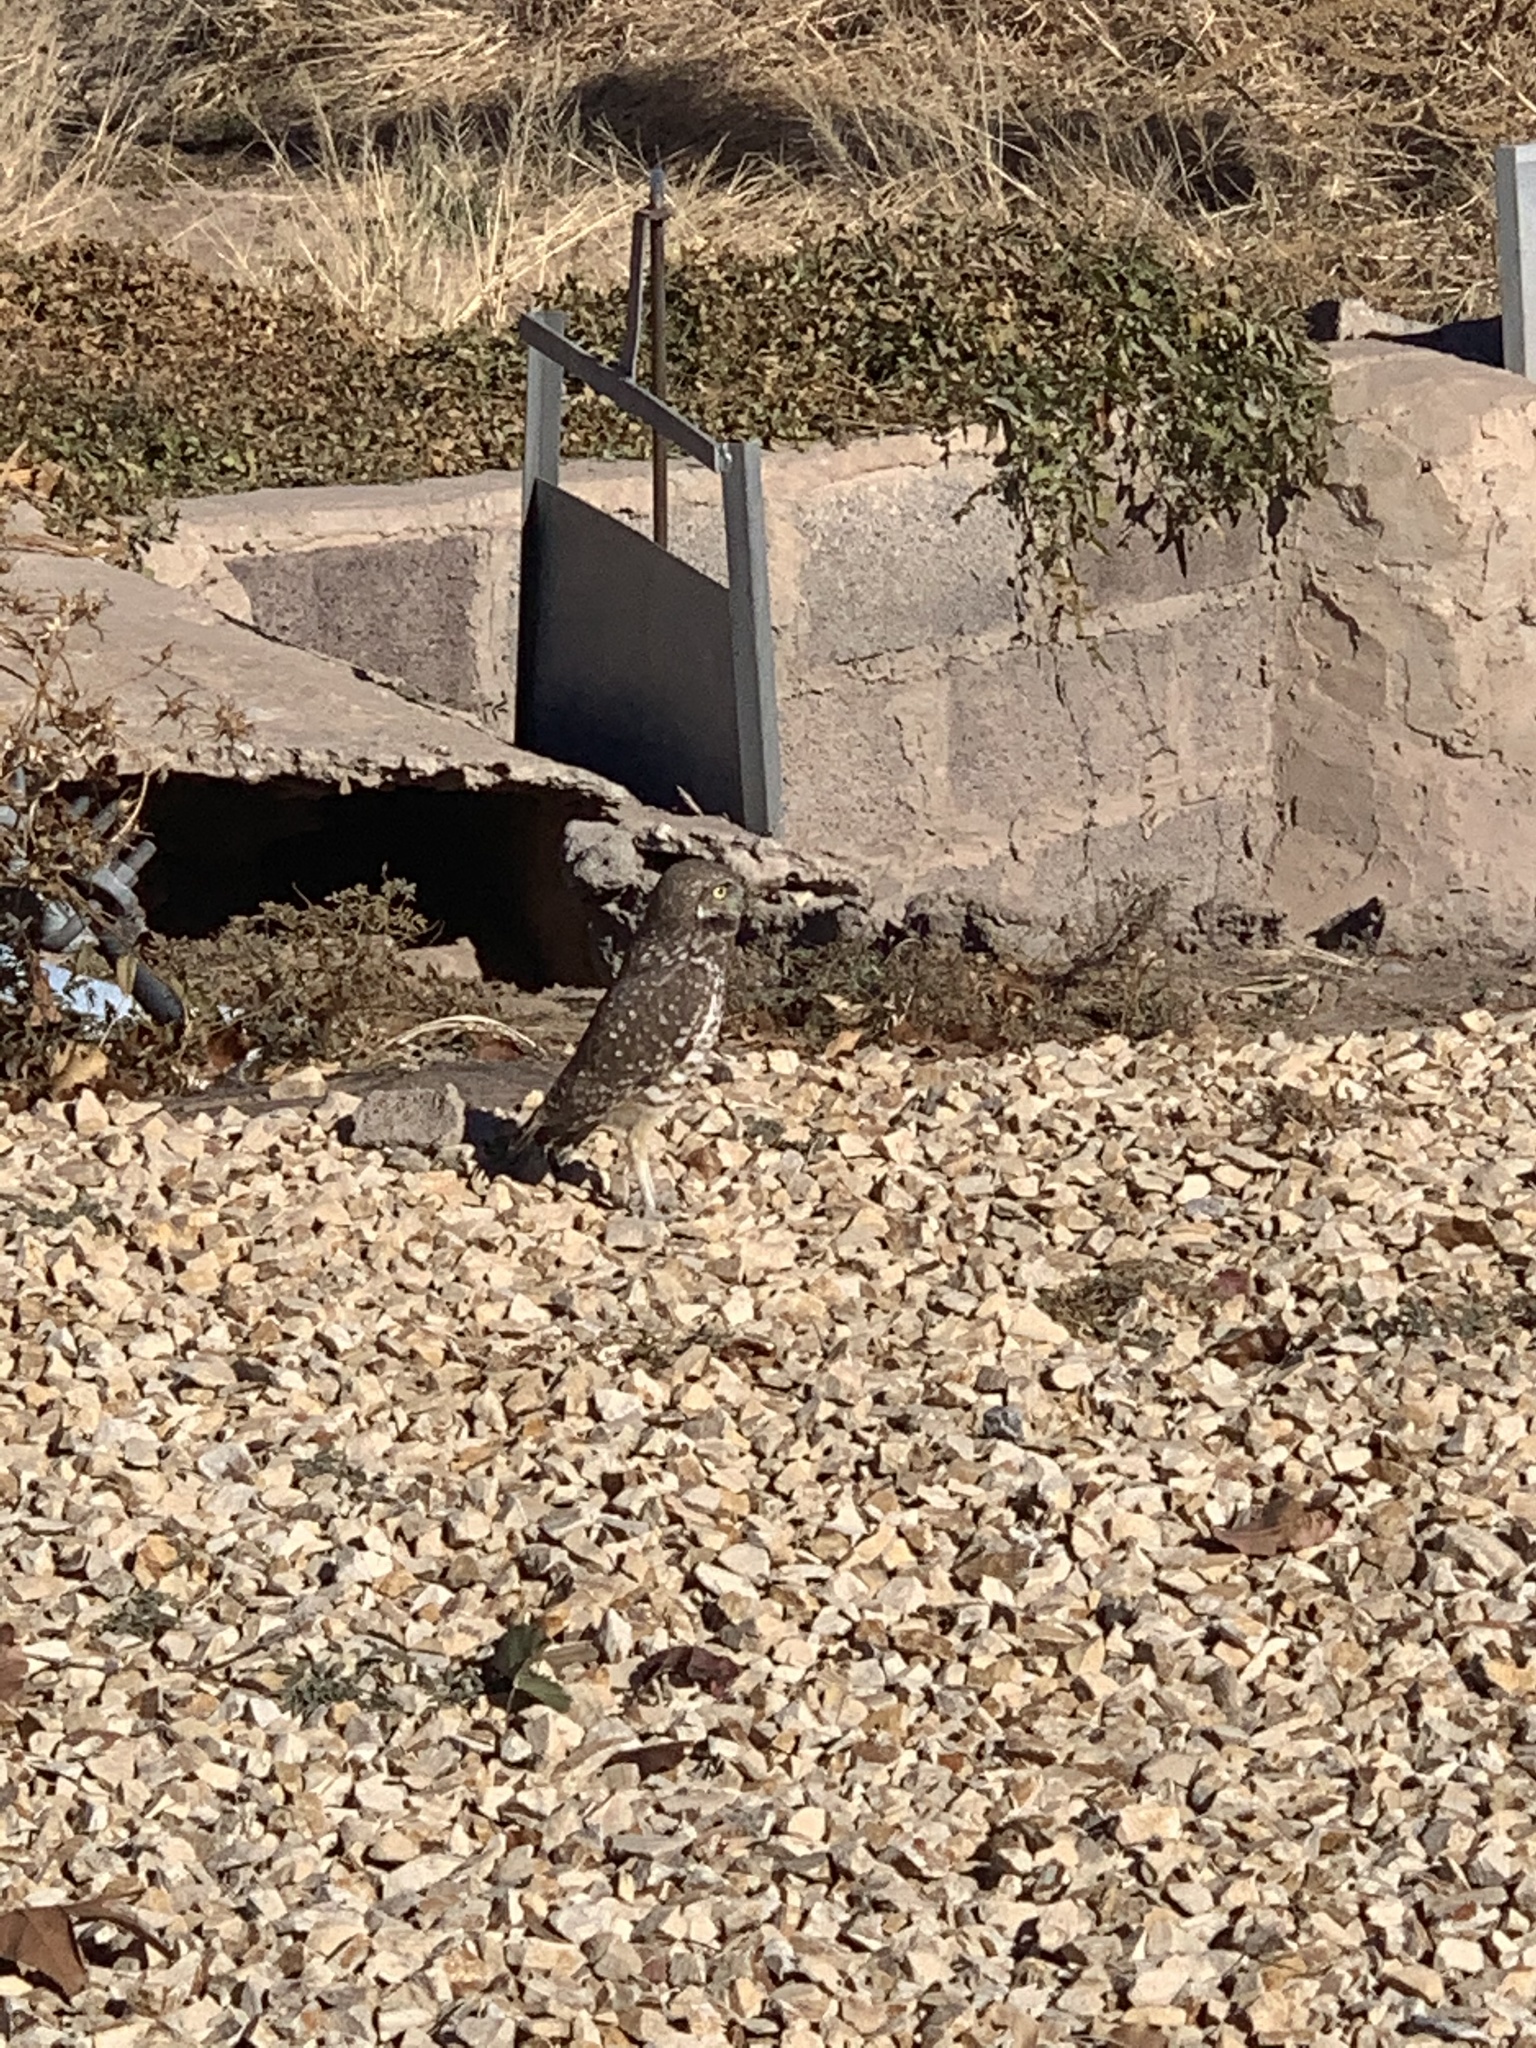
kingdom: Animalia
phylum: Chordata
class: Aves
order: Strigiformes
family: Strigidae
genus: Athene
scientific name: Athene cunicularia
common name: Burrowing owl
